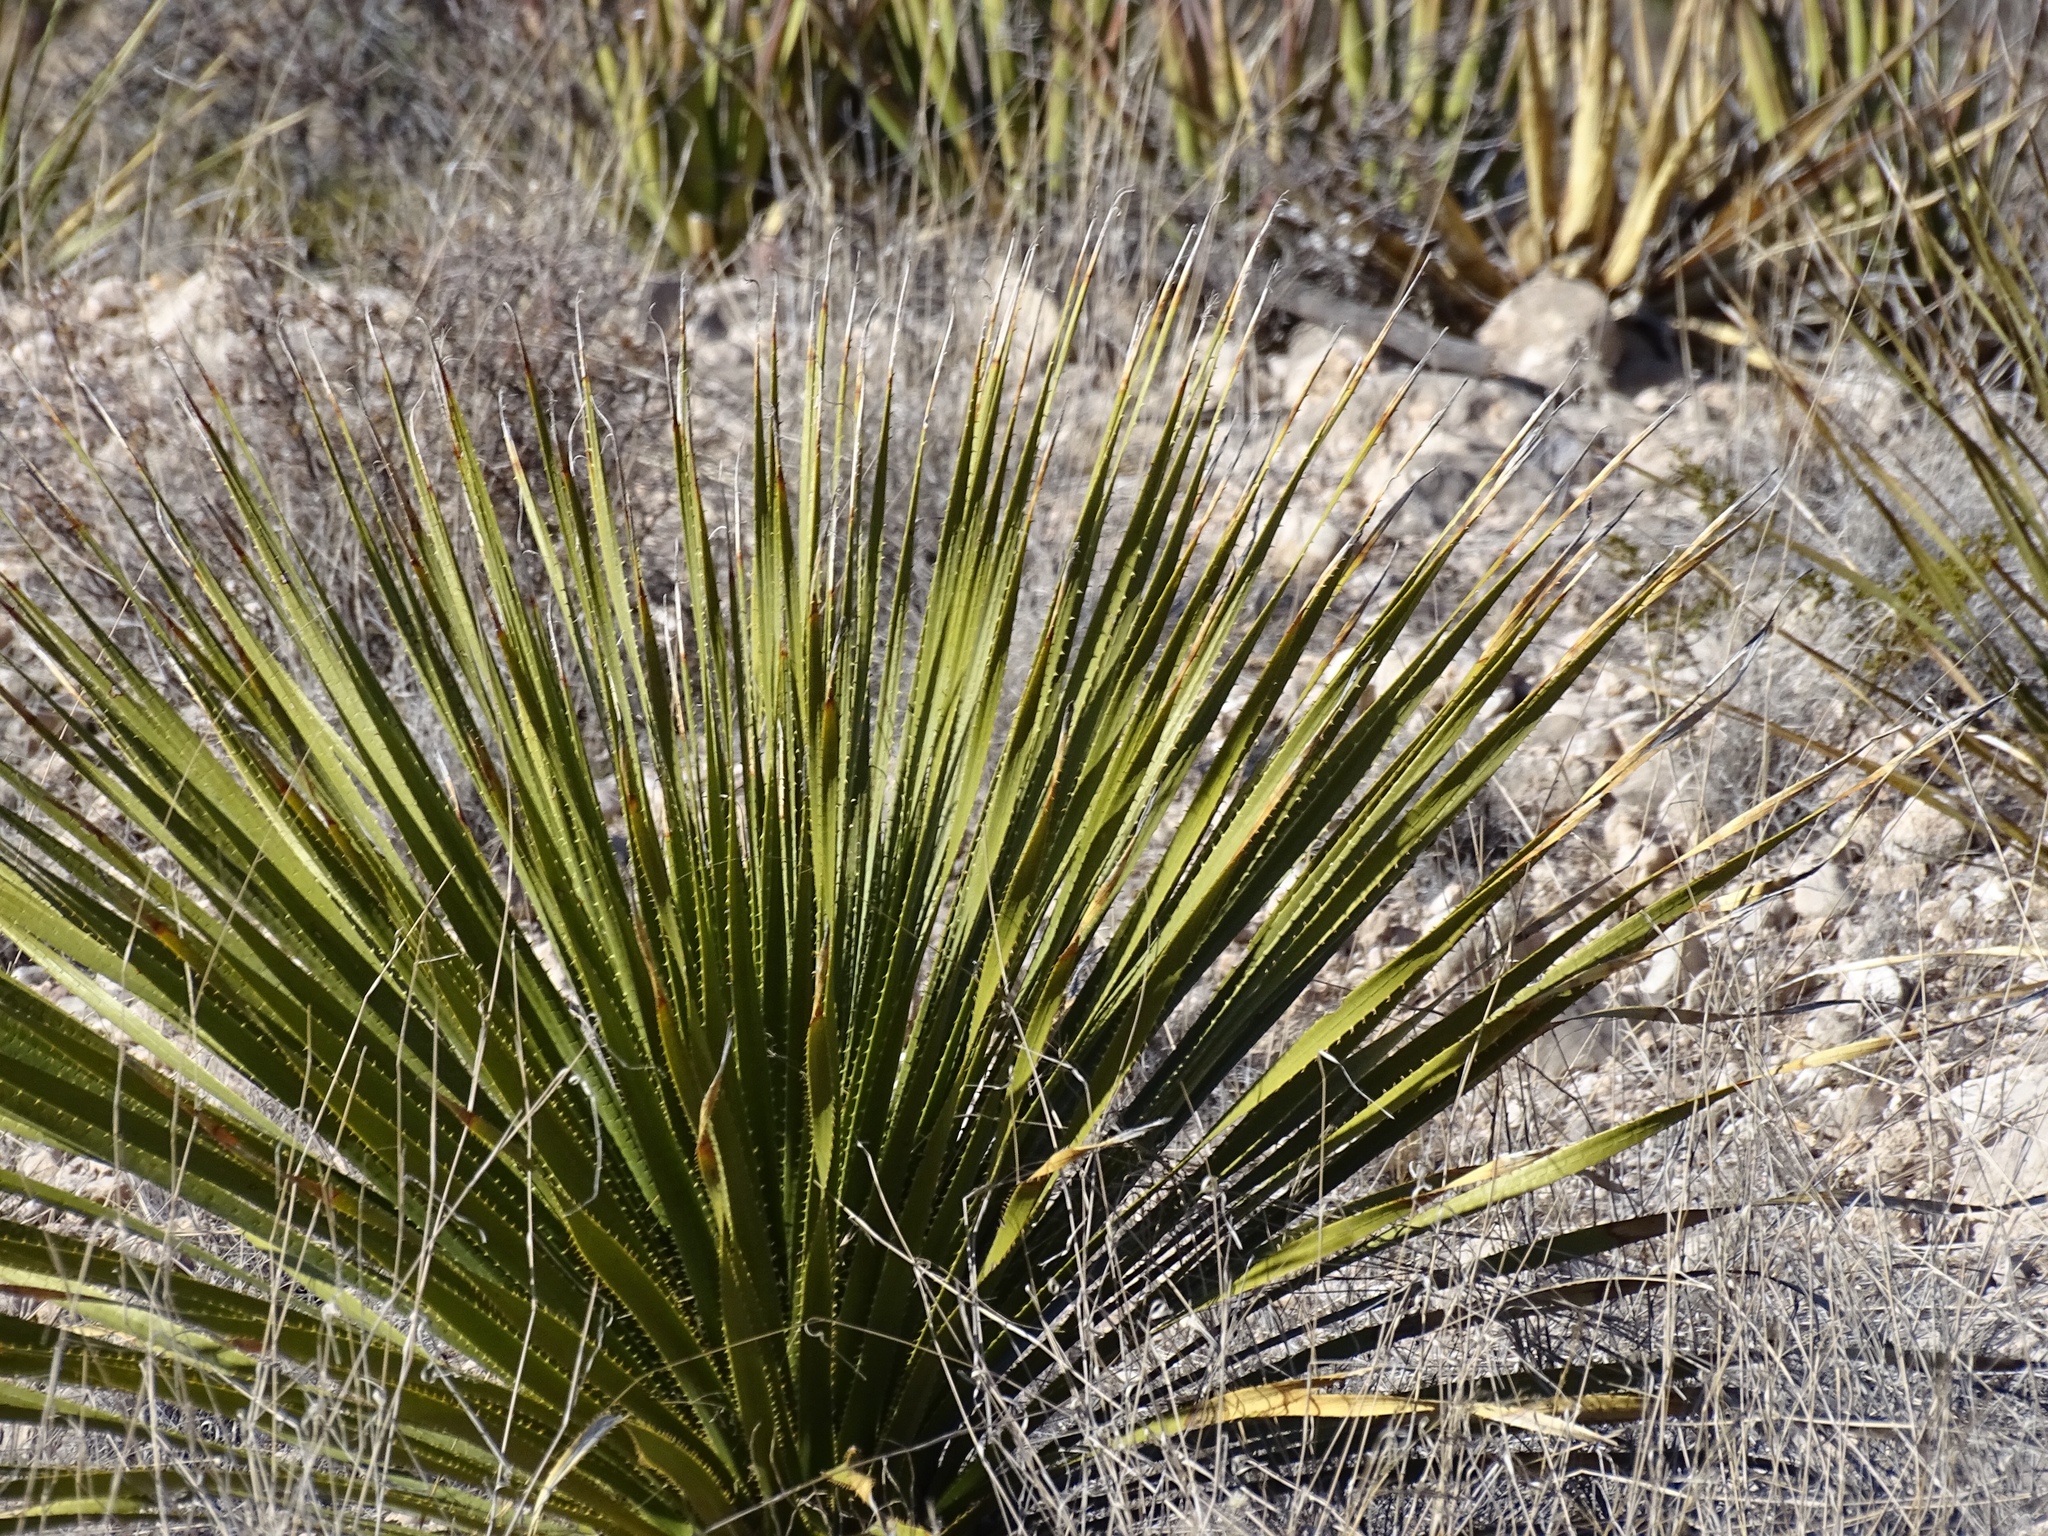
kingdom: Plantae
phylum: Tracheophyta
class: Liliopsida
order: Asparagales
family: Asparagaceae
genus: Dasylirion
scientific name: Dasylirion wheeleri
